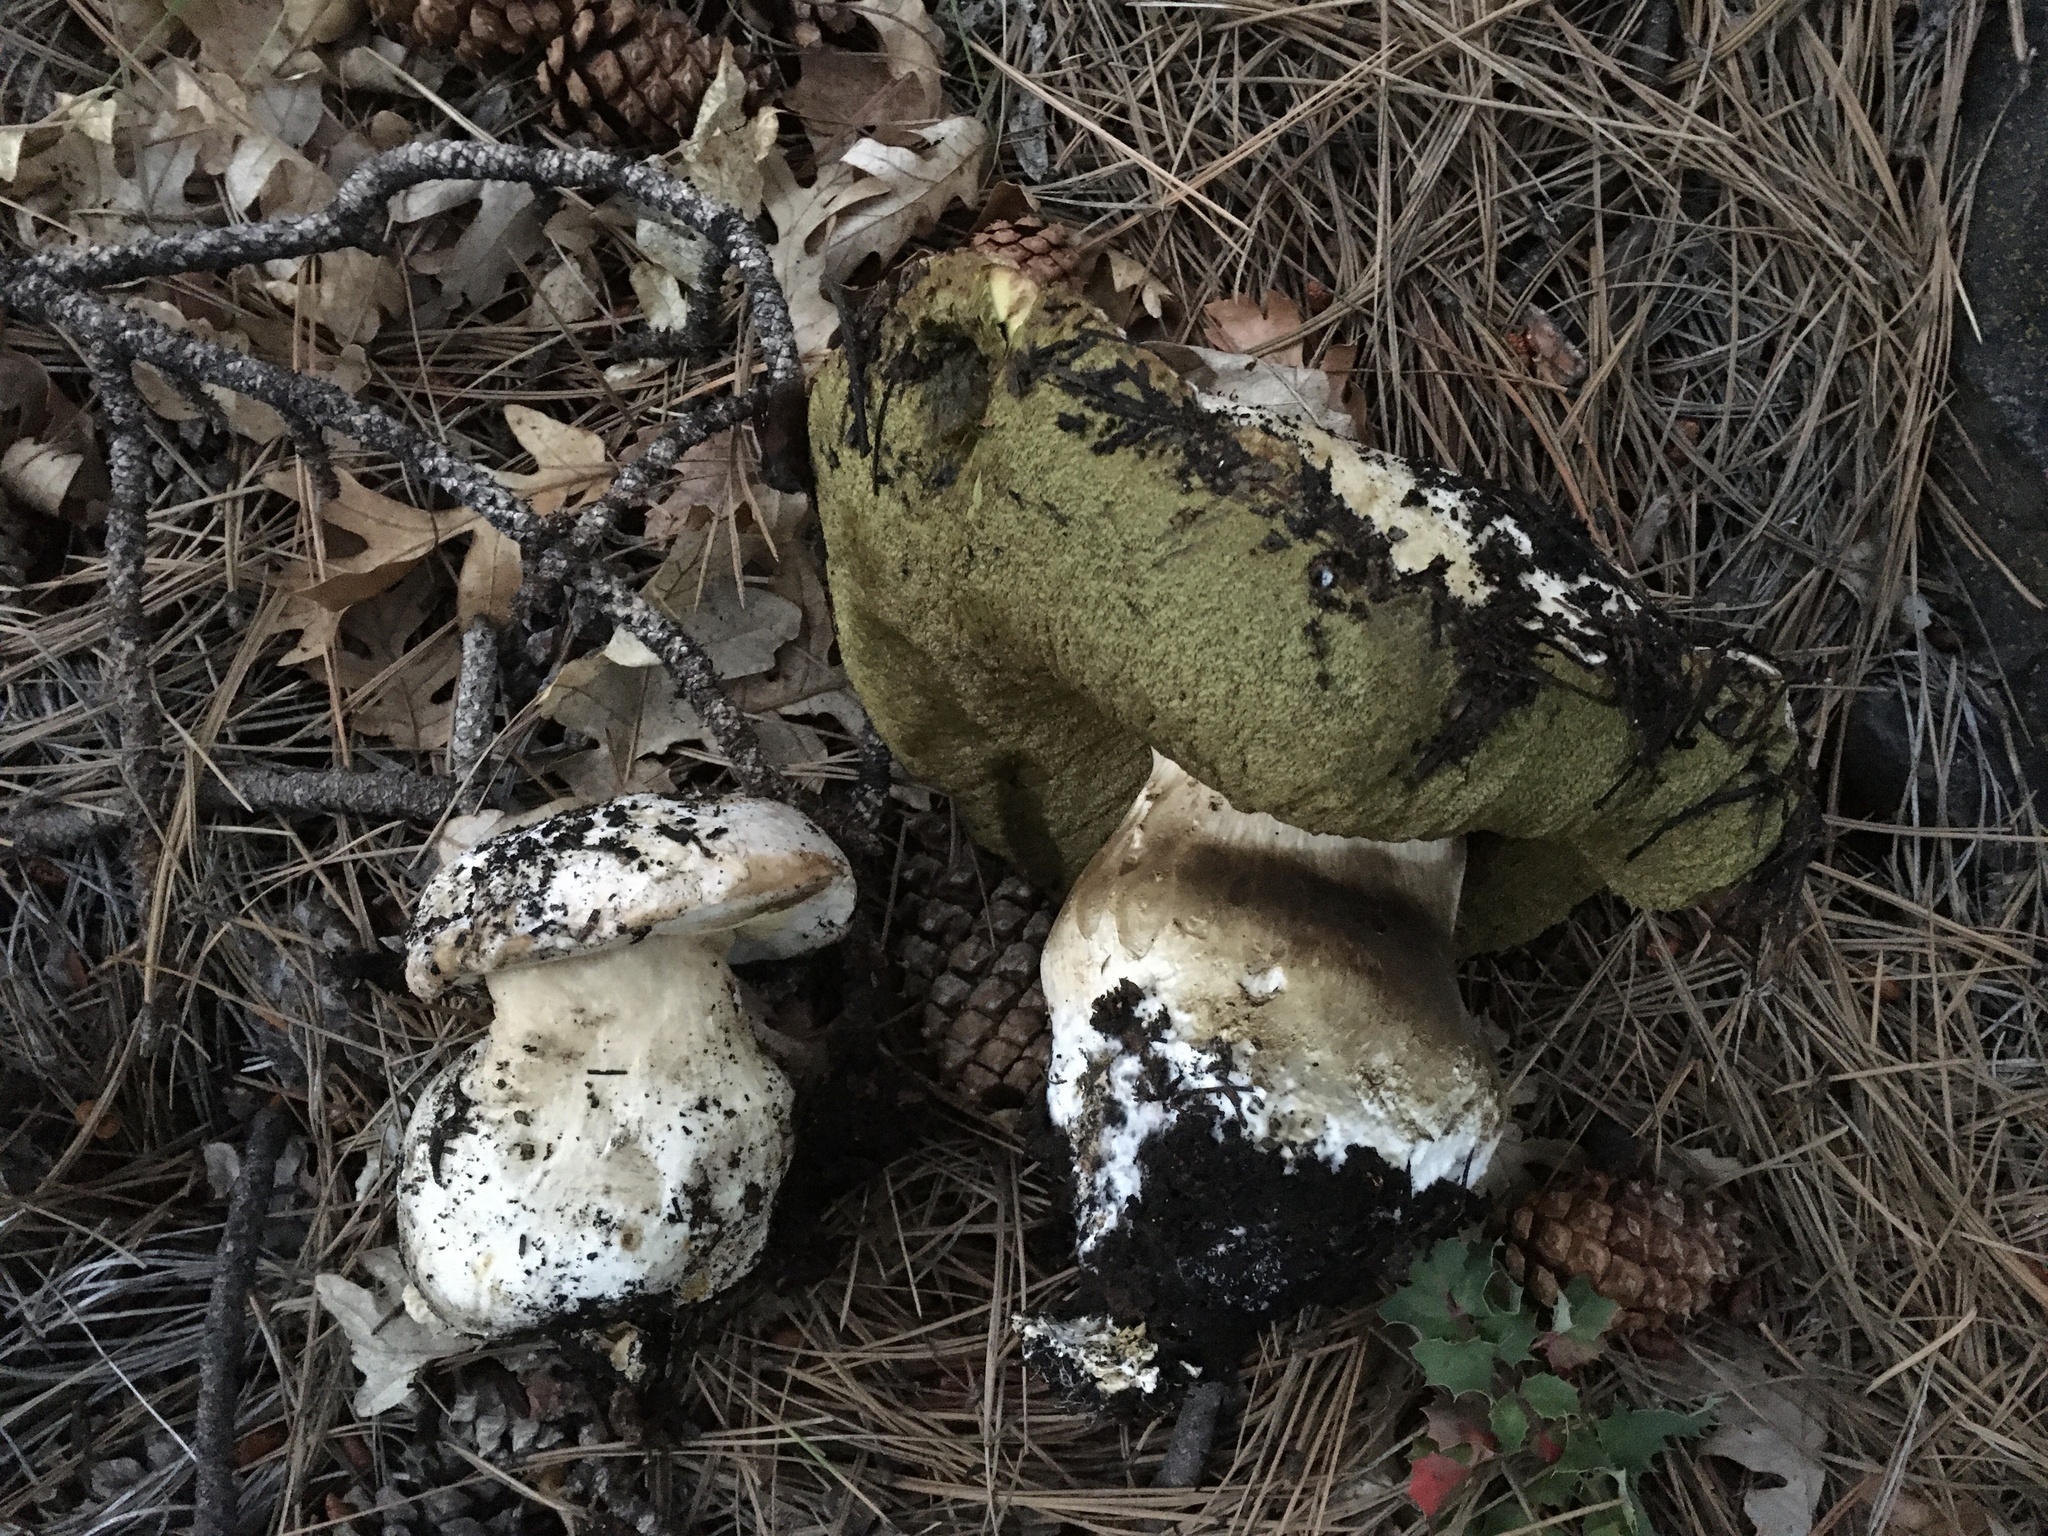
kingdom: Fungi
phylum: Basidiomycota
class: Agaricomycetes
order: Boletales
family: Boletaceae
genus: Boletus
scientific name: Boletus barrowsii
